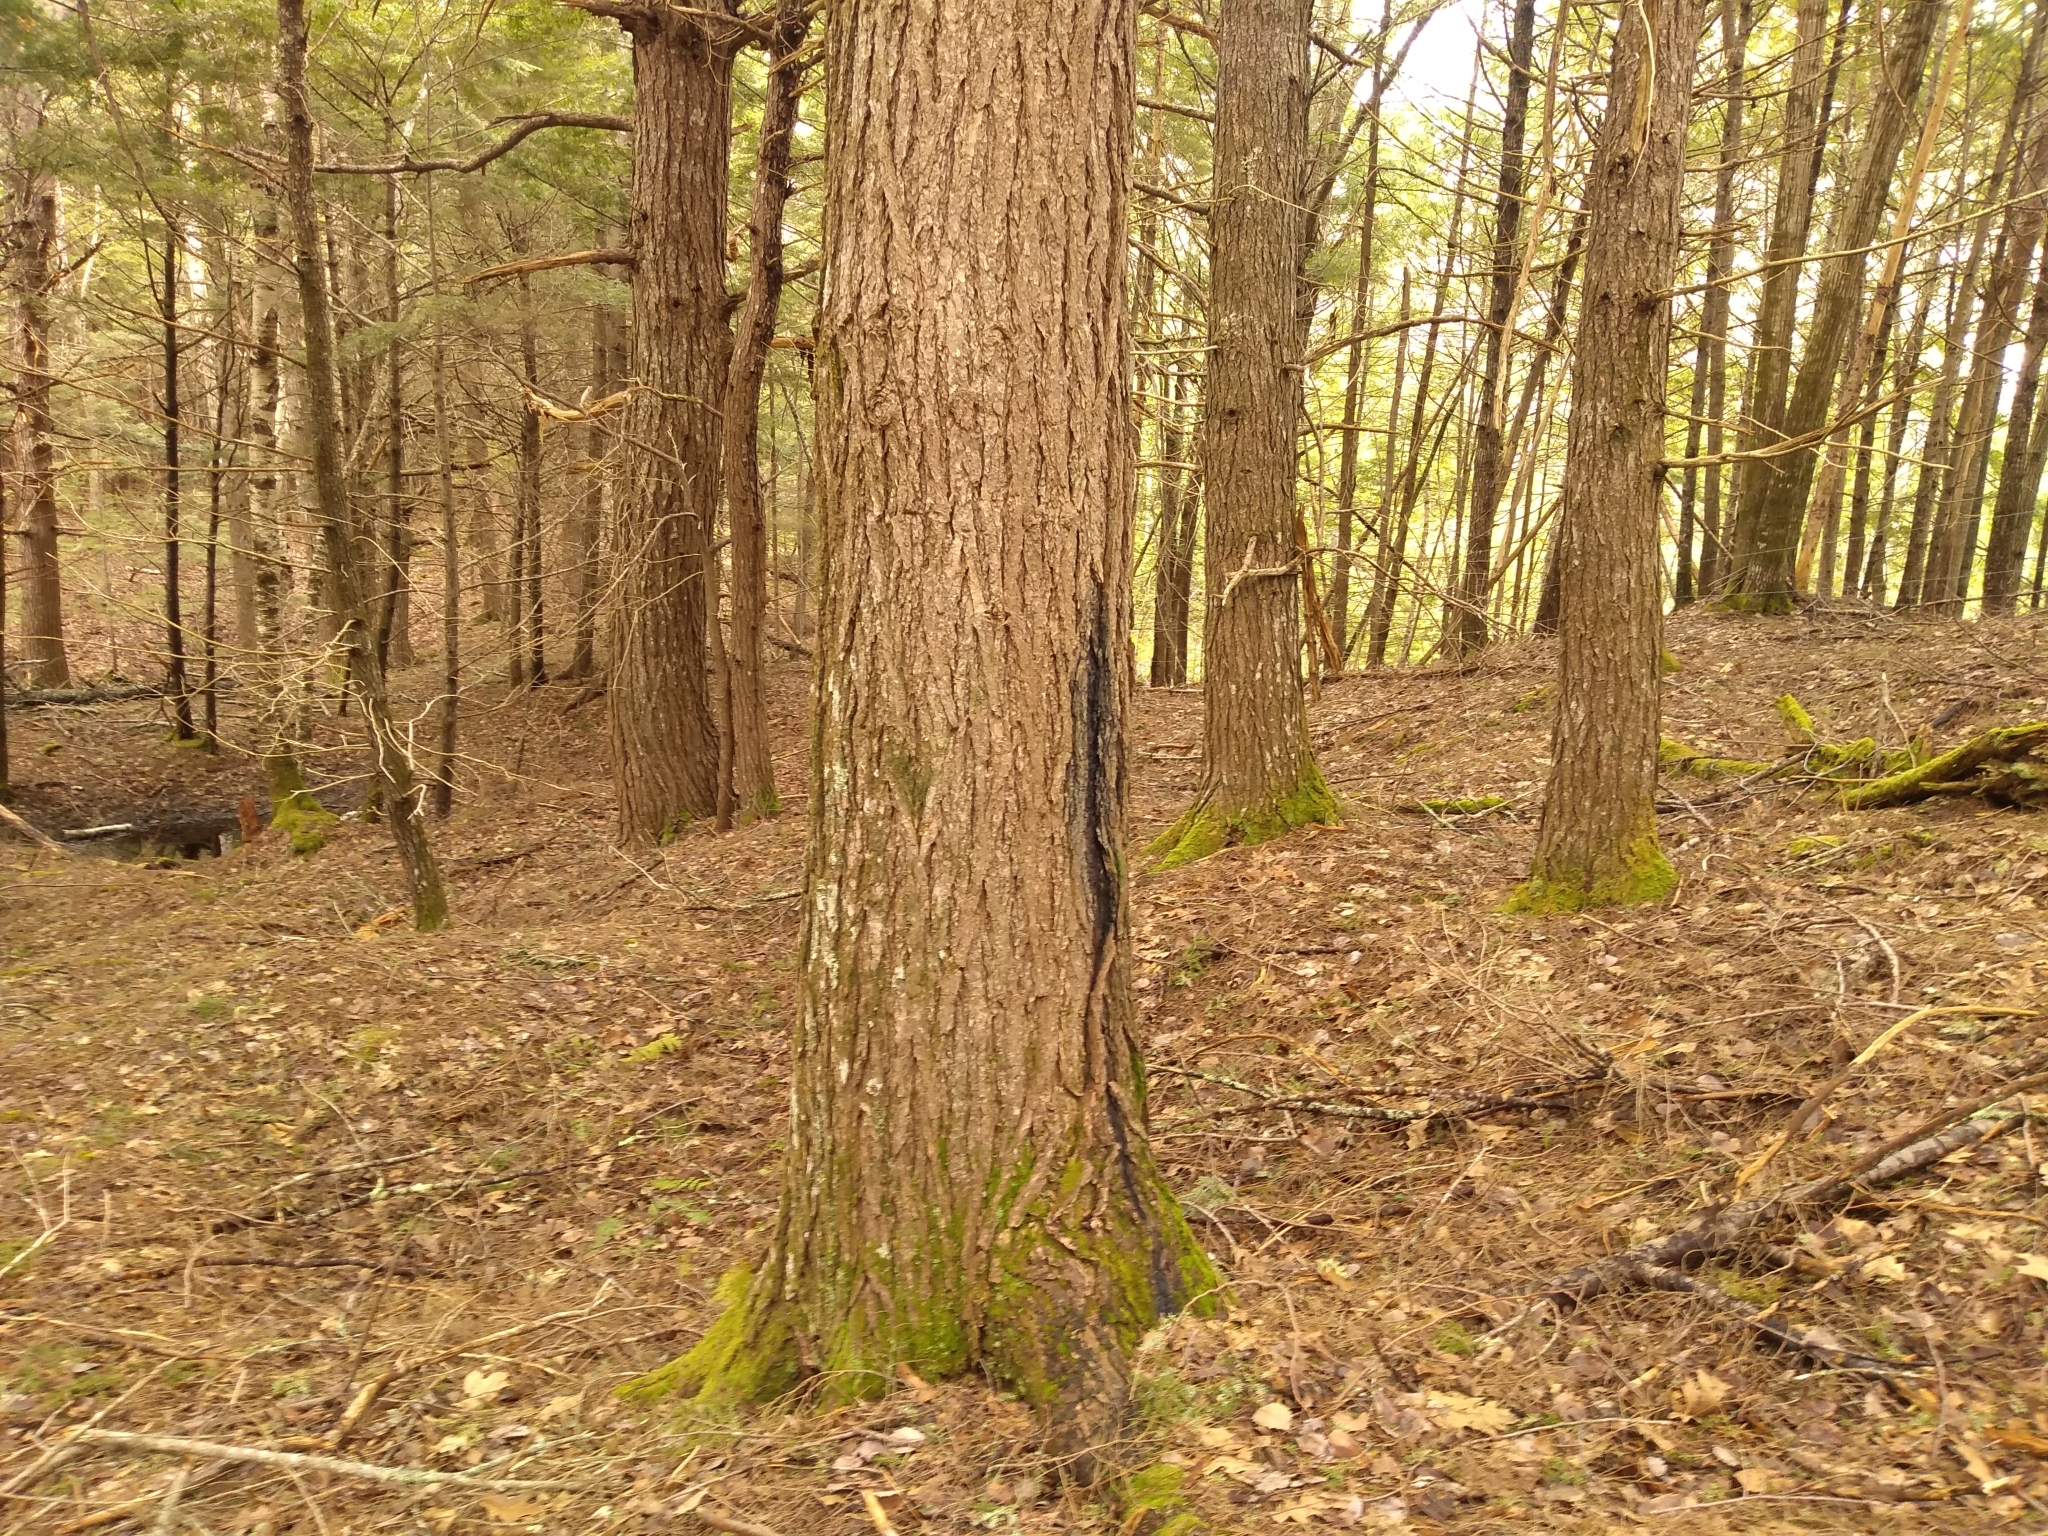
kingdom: Plantae
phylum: Tracheophyta
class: Pinopsida
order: Pinales
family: Pinaceae
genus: Tsuga
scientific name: Tsuga canadensis
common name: Eastern hemlock
